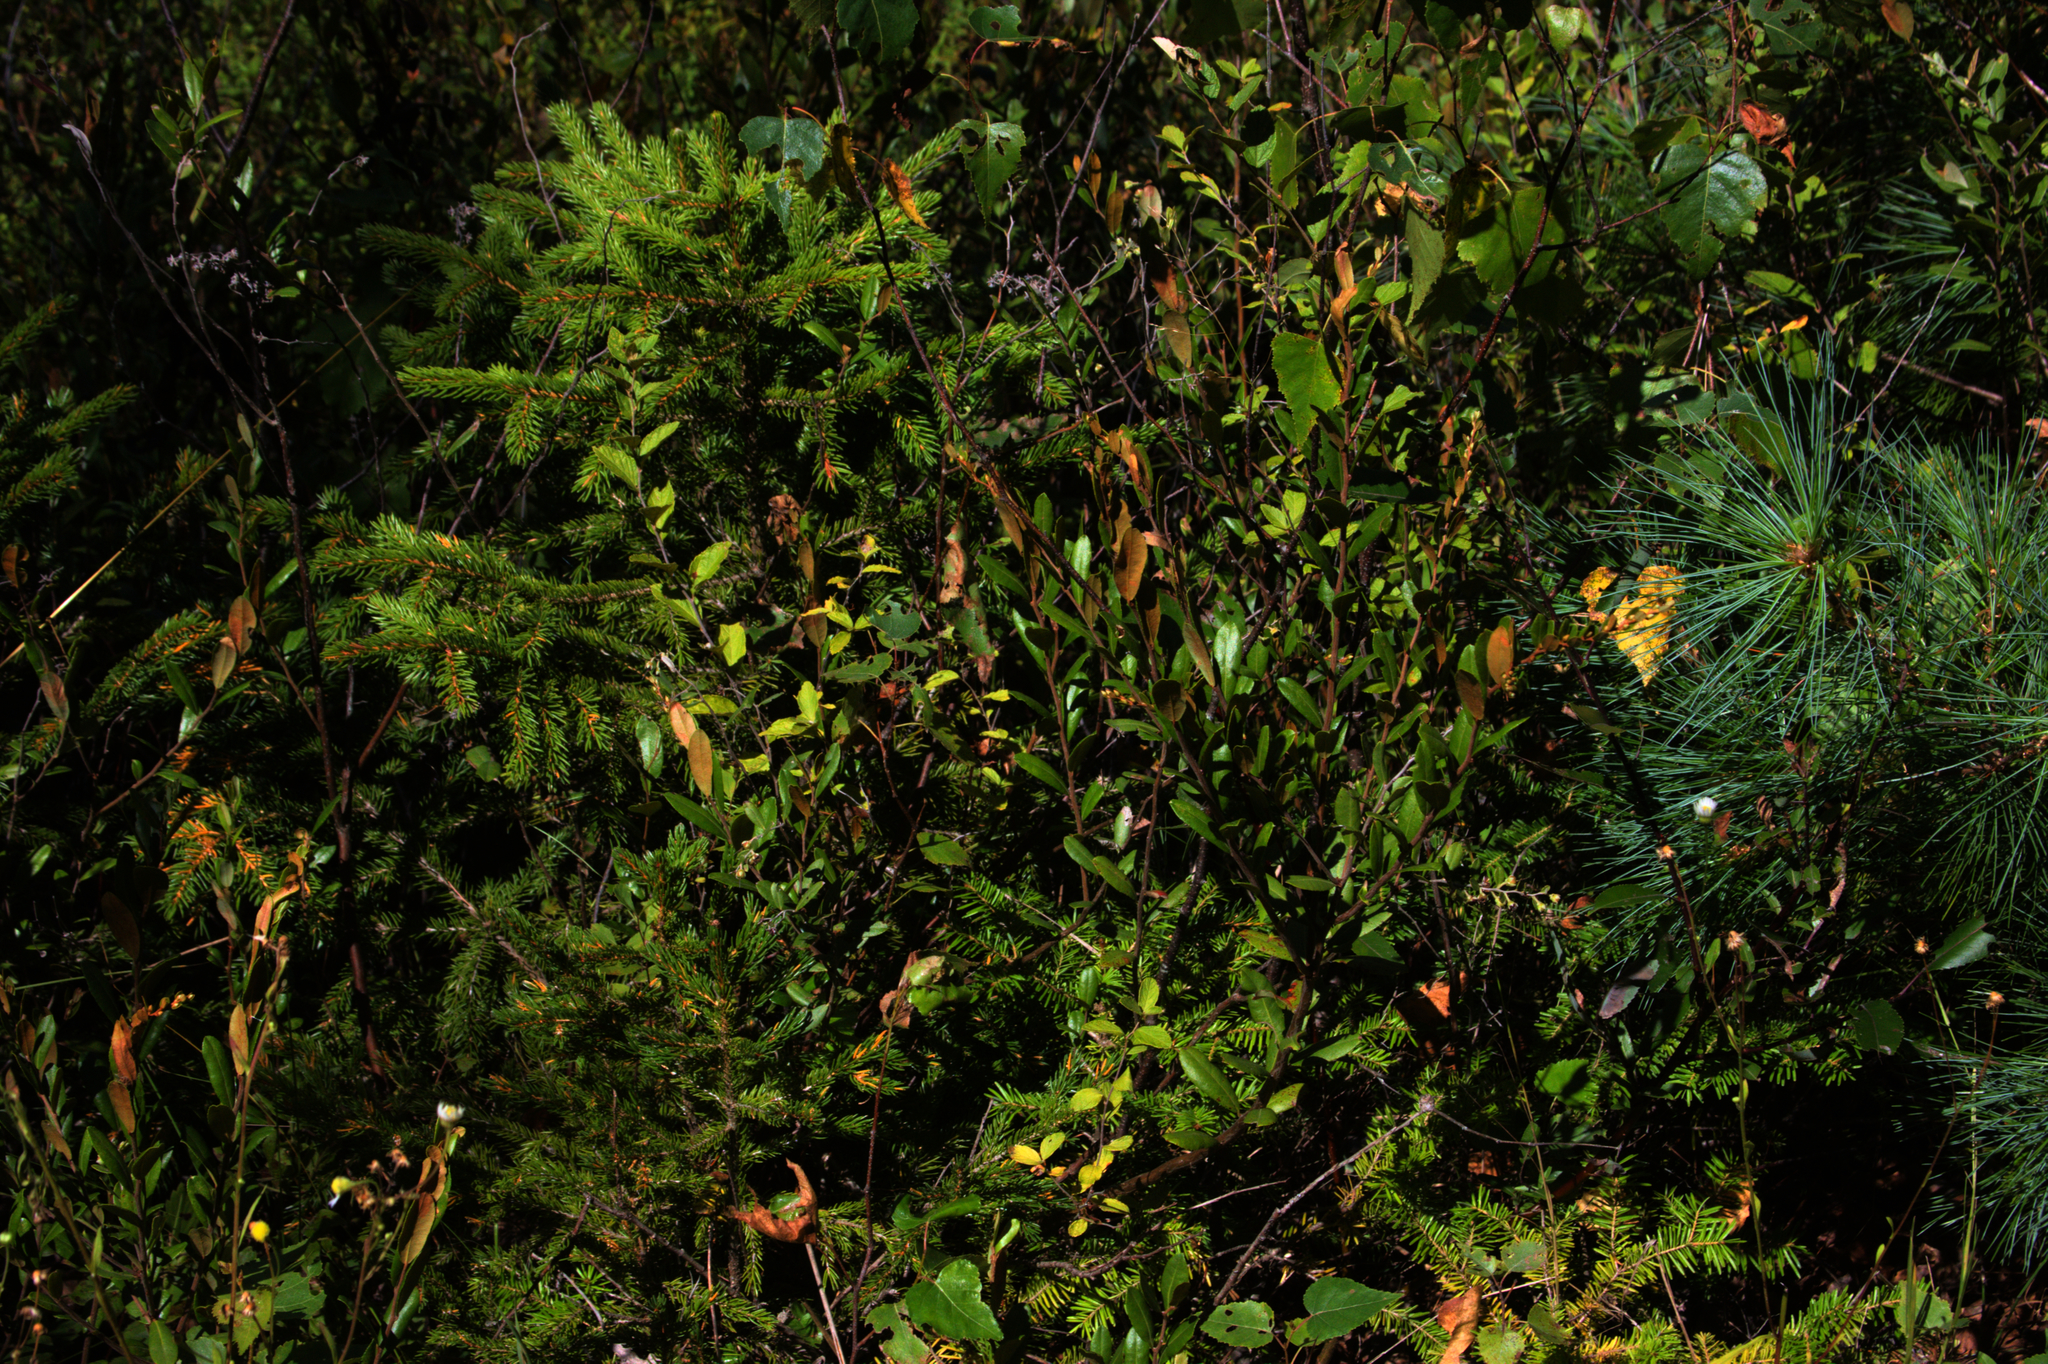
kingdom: Plantae
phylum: Tracheophyta
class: Magnoliopsida
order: Ericales
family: Ericaceae
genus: Chamaedaphne
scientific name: Chamaedaphne calyculata
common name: Leatherleaf
